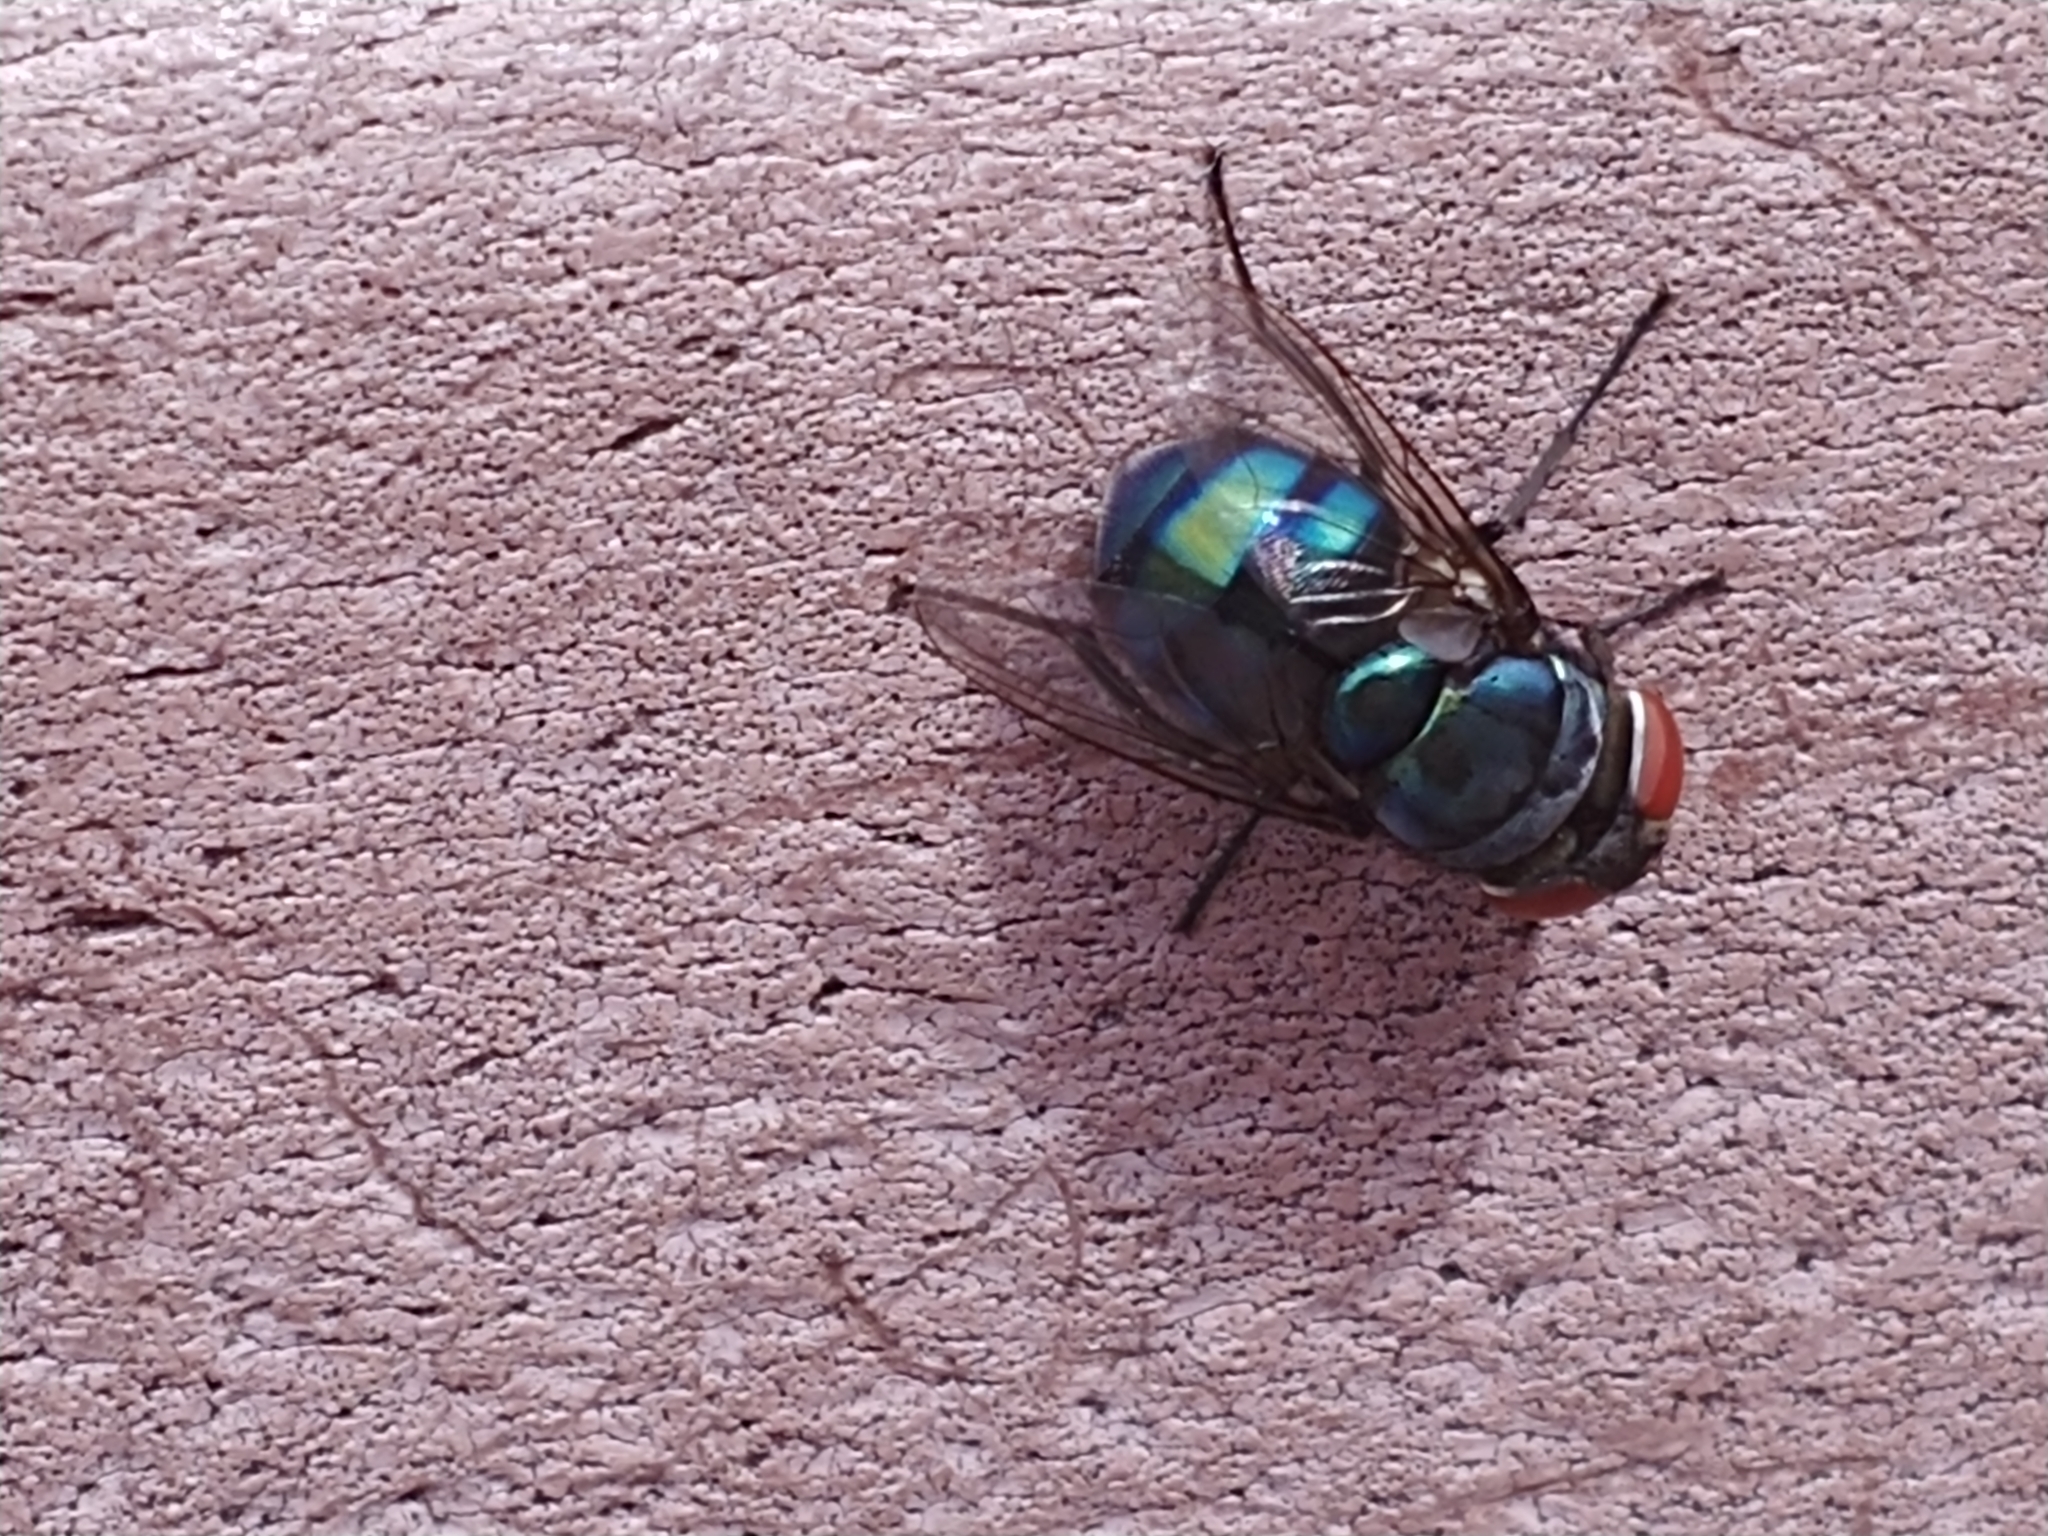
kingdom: Animalia
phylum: Arthropoda
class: Insecta
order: Diptera
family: Calliphoridae
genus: Chrysomya
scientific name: Chrysomya megacephala
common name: Blow fly
